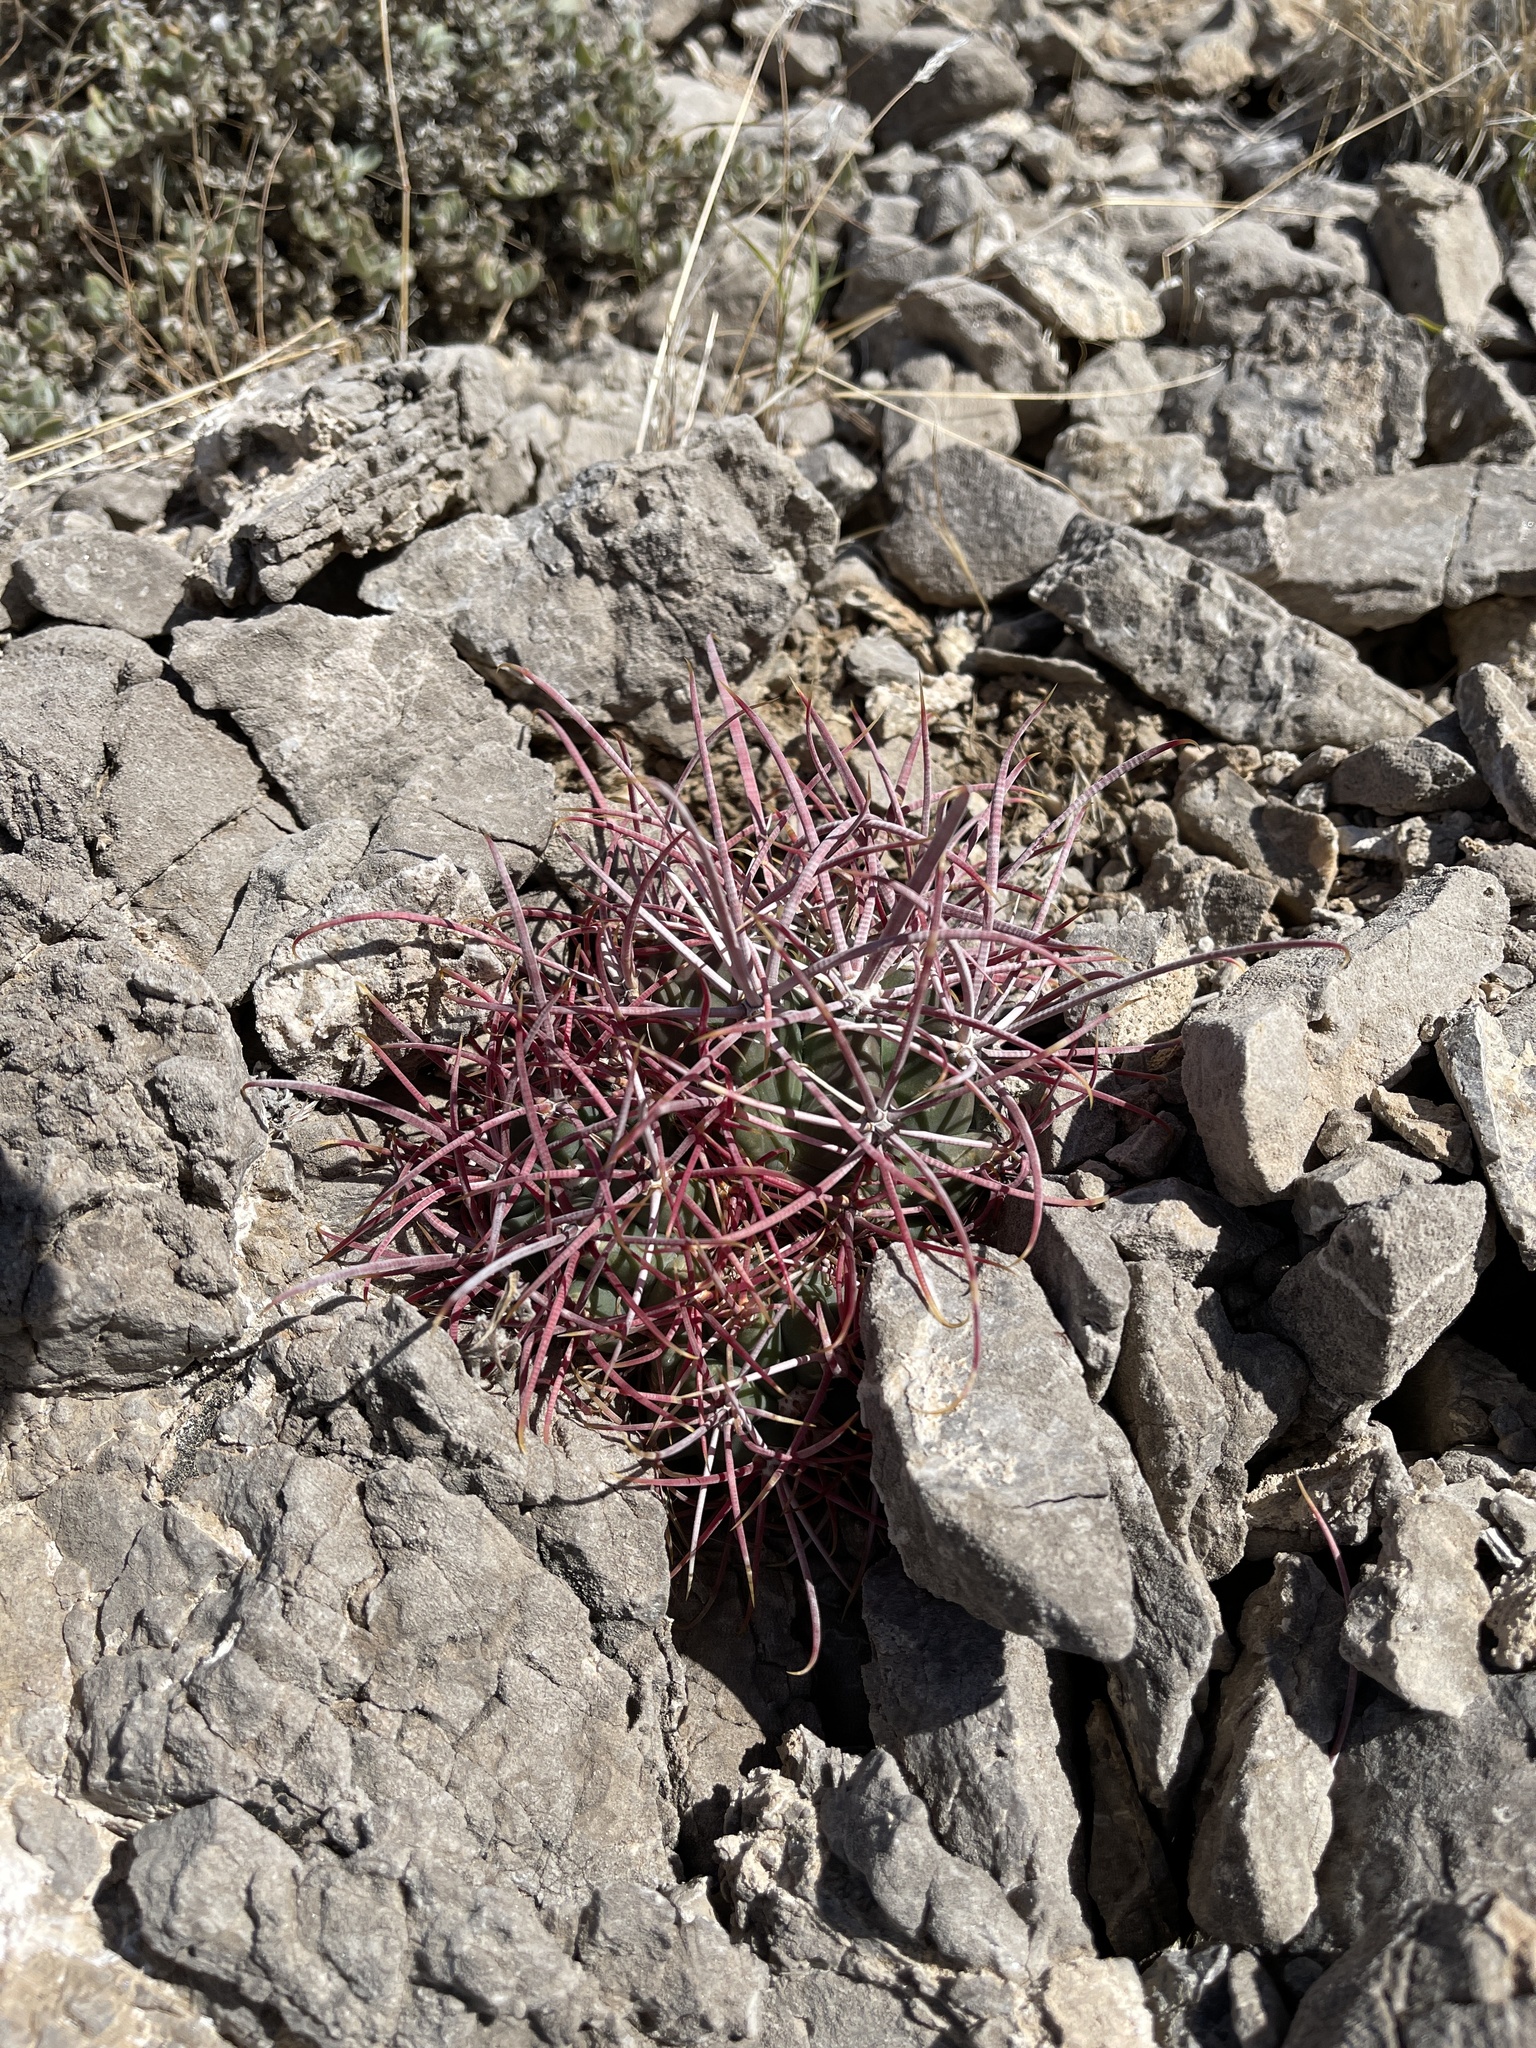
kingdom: Plantae
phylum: Tracheophyta
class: Magnoliopsida
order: Caryophyllales
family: Cactaceae
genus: Echinocactus
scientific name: Echinocactus polycephalus
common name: Cottontop cactus
